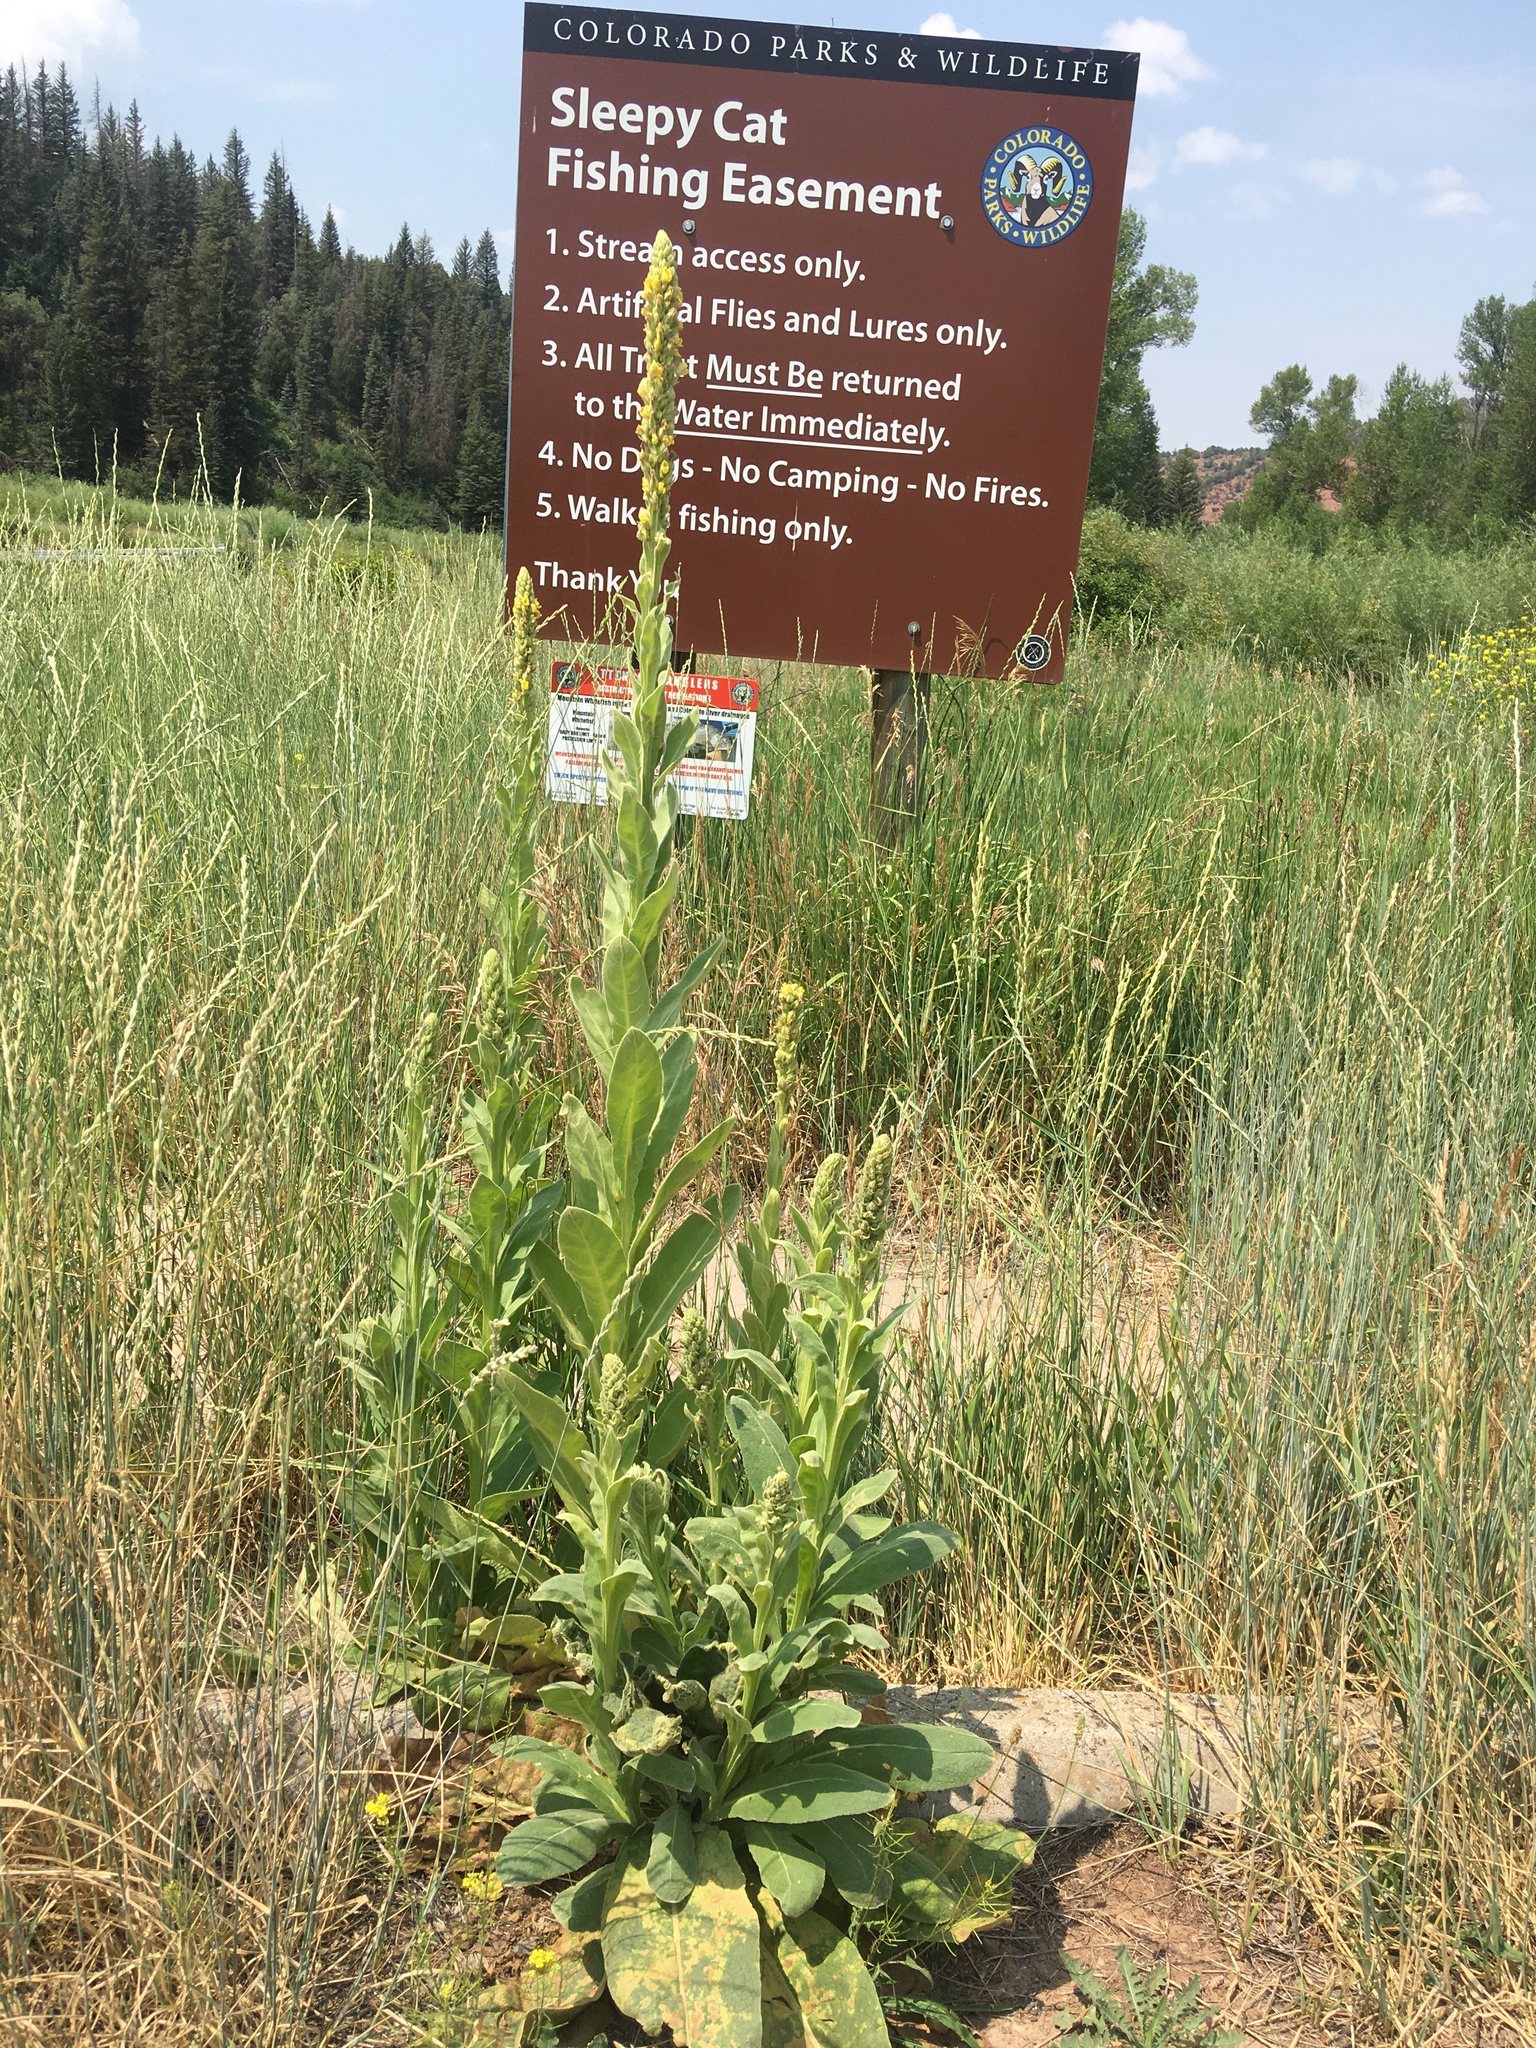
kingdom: Plantae
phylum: Tracheophyta
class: Magnoliopsida
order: Lamiales
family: Scrophulariaceae
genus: Verbascum
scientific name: Verbascum thapsus
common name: Common mullein
